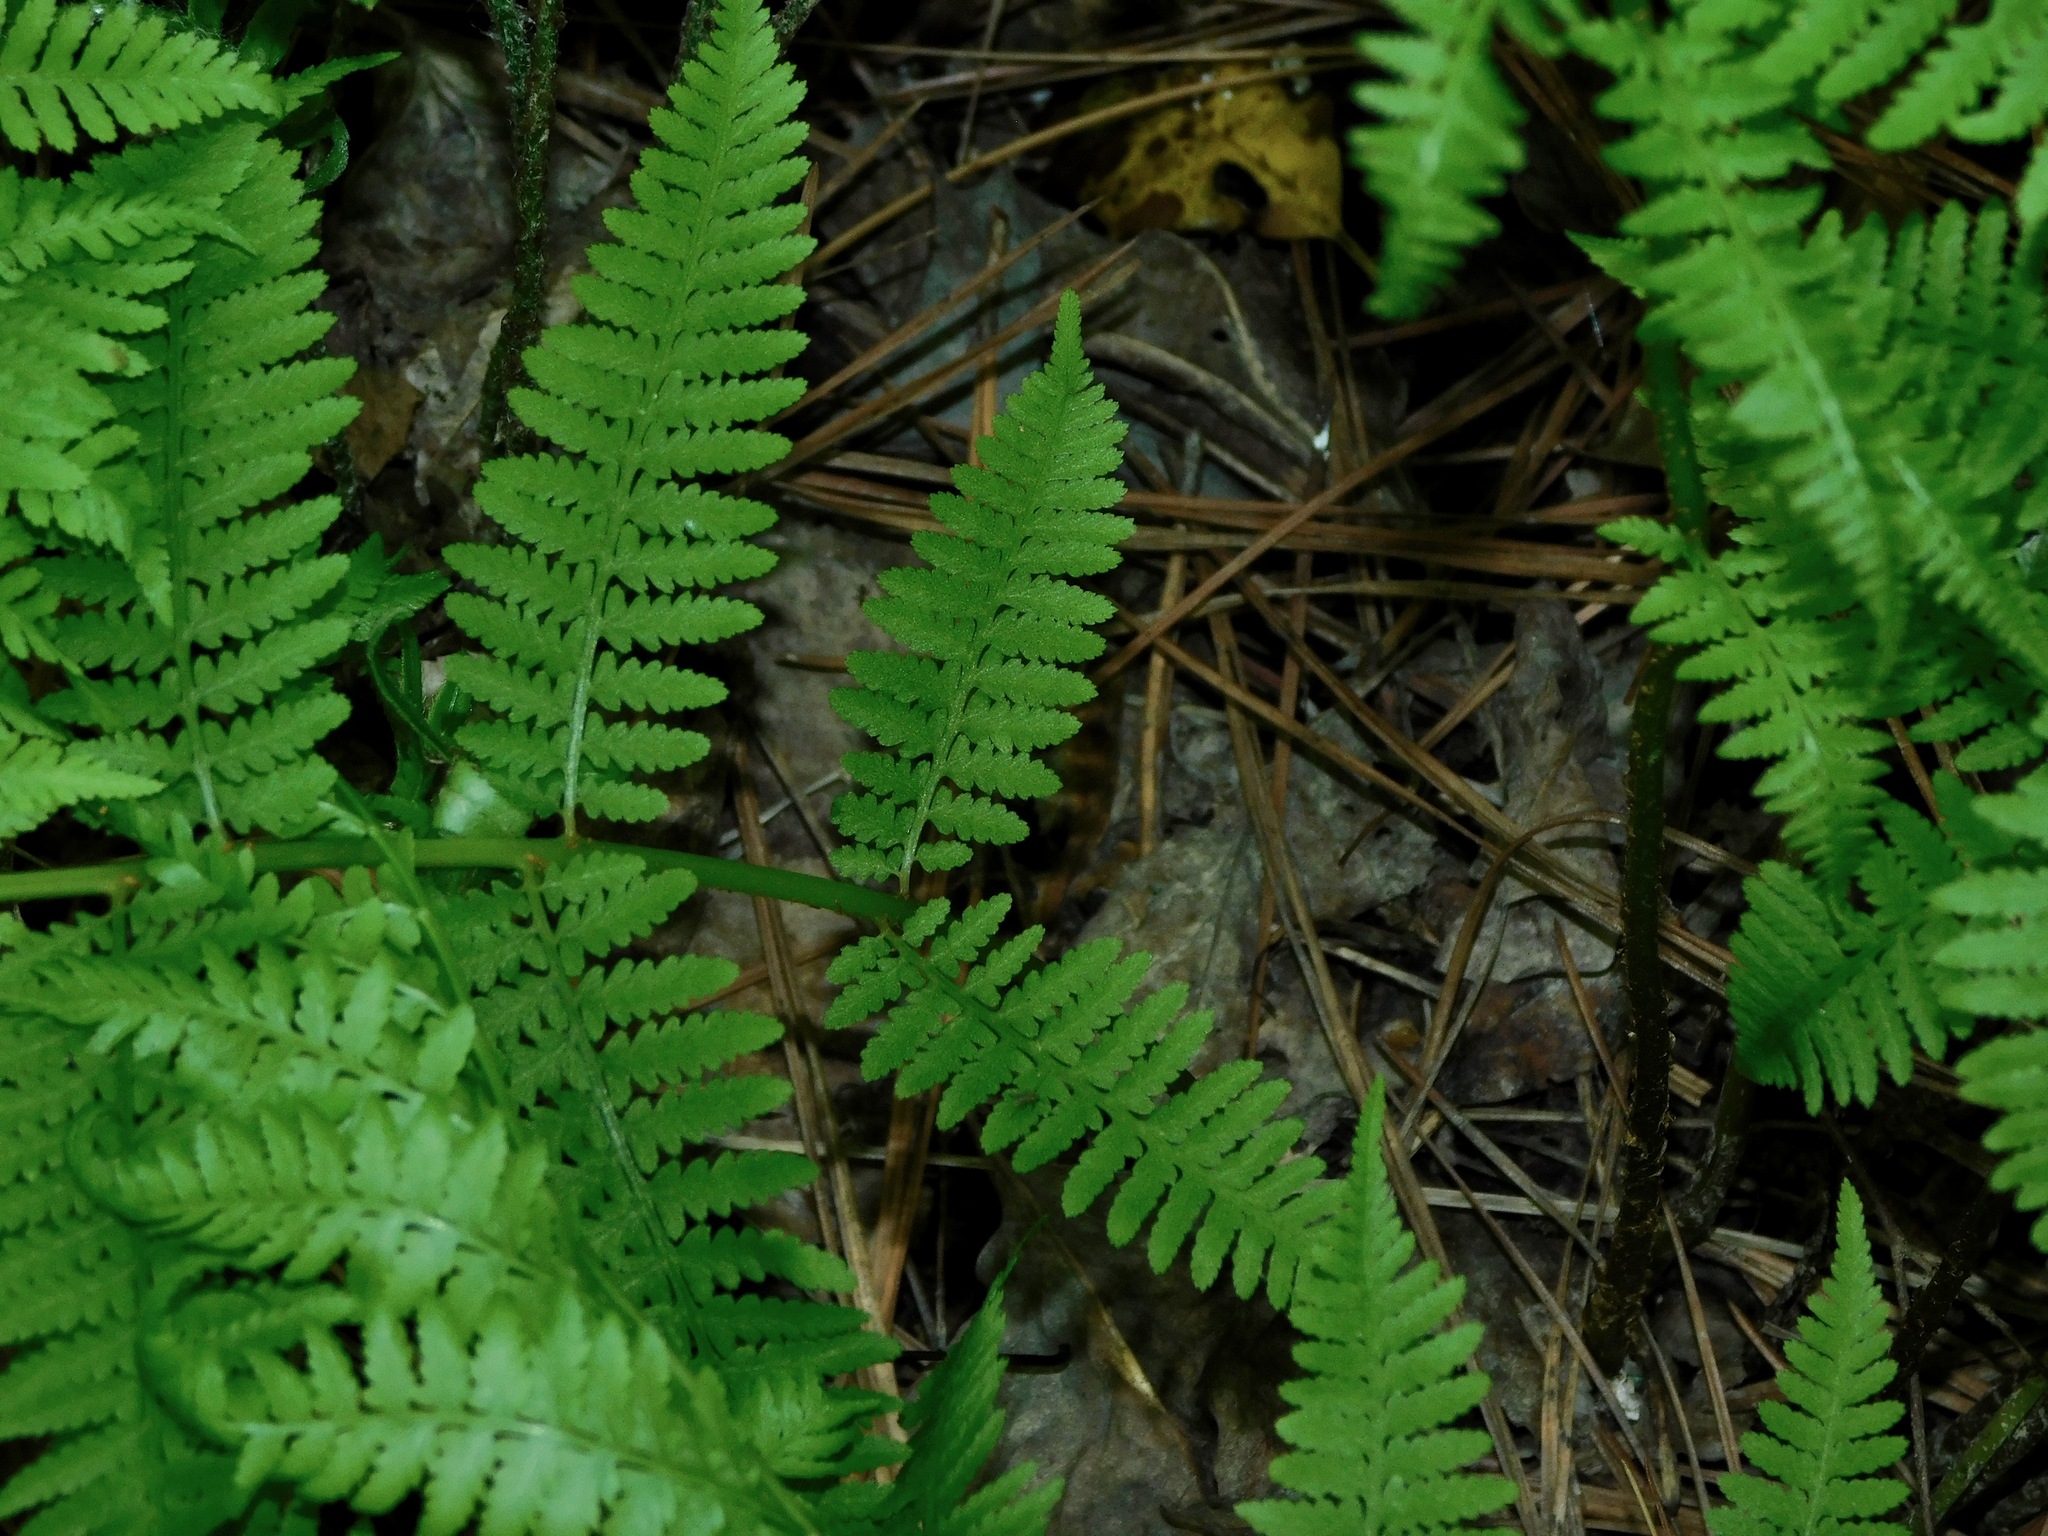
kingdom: Plantae
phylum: Tracheophyta
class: Polypodiopsida
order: Polypodiales
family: Athyriaceae
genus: Athyrium
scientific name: Athyrium asplenioides
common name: Southern lady fern
